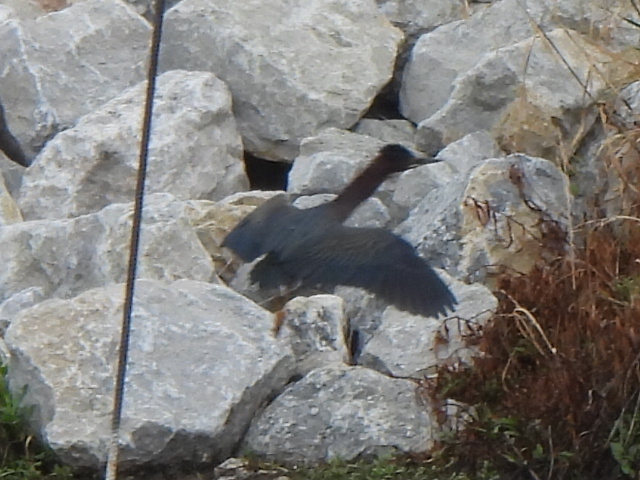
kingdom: Animalia
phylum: Chordata
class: Aves
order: Pelecaniformes
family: Ardeidae
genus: Butorides
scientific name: Butorides virescens
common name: Green heron
